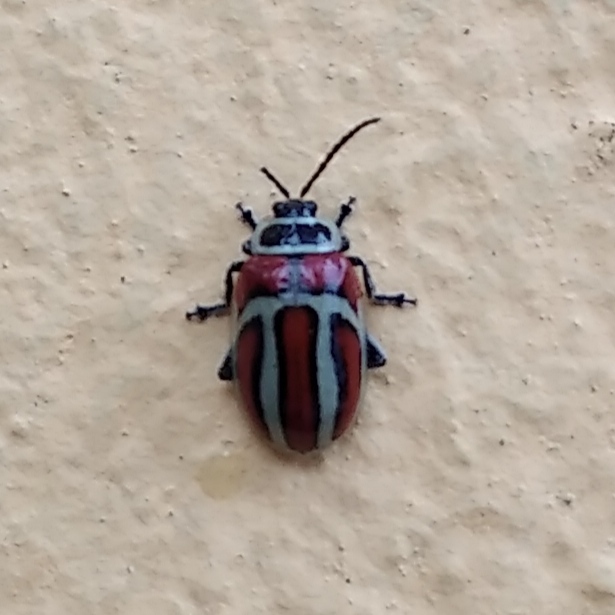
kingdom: Animalia
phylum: Arthropoda
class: Insecta
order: Coleoptera
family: Chrysomelidae
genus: Asphaera
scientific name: Asphaera
